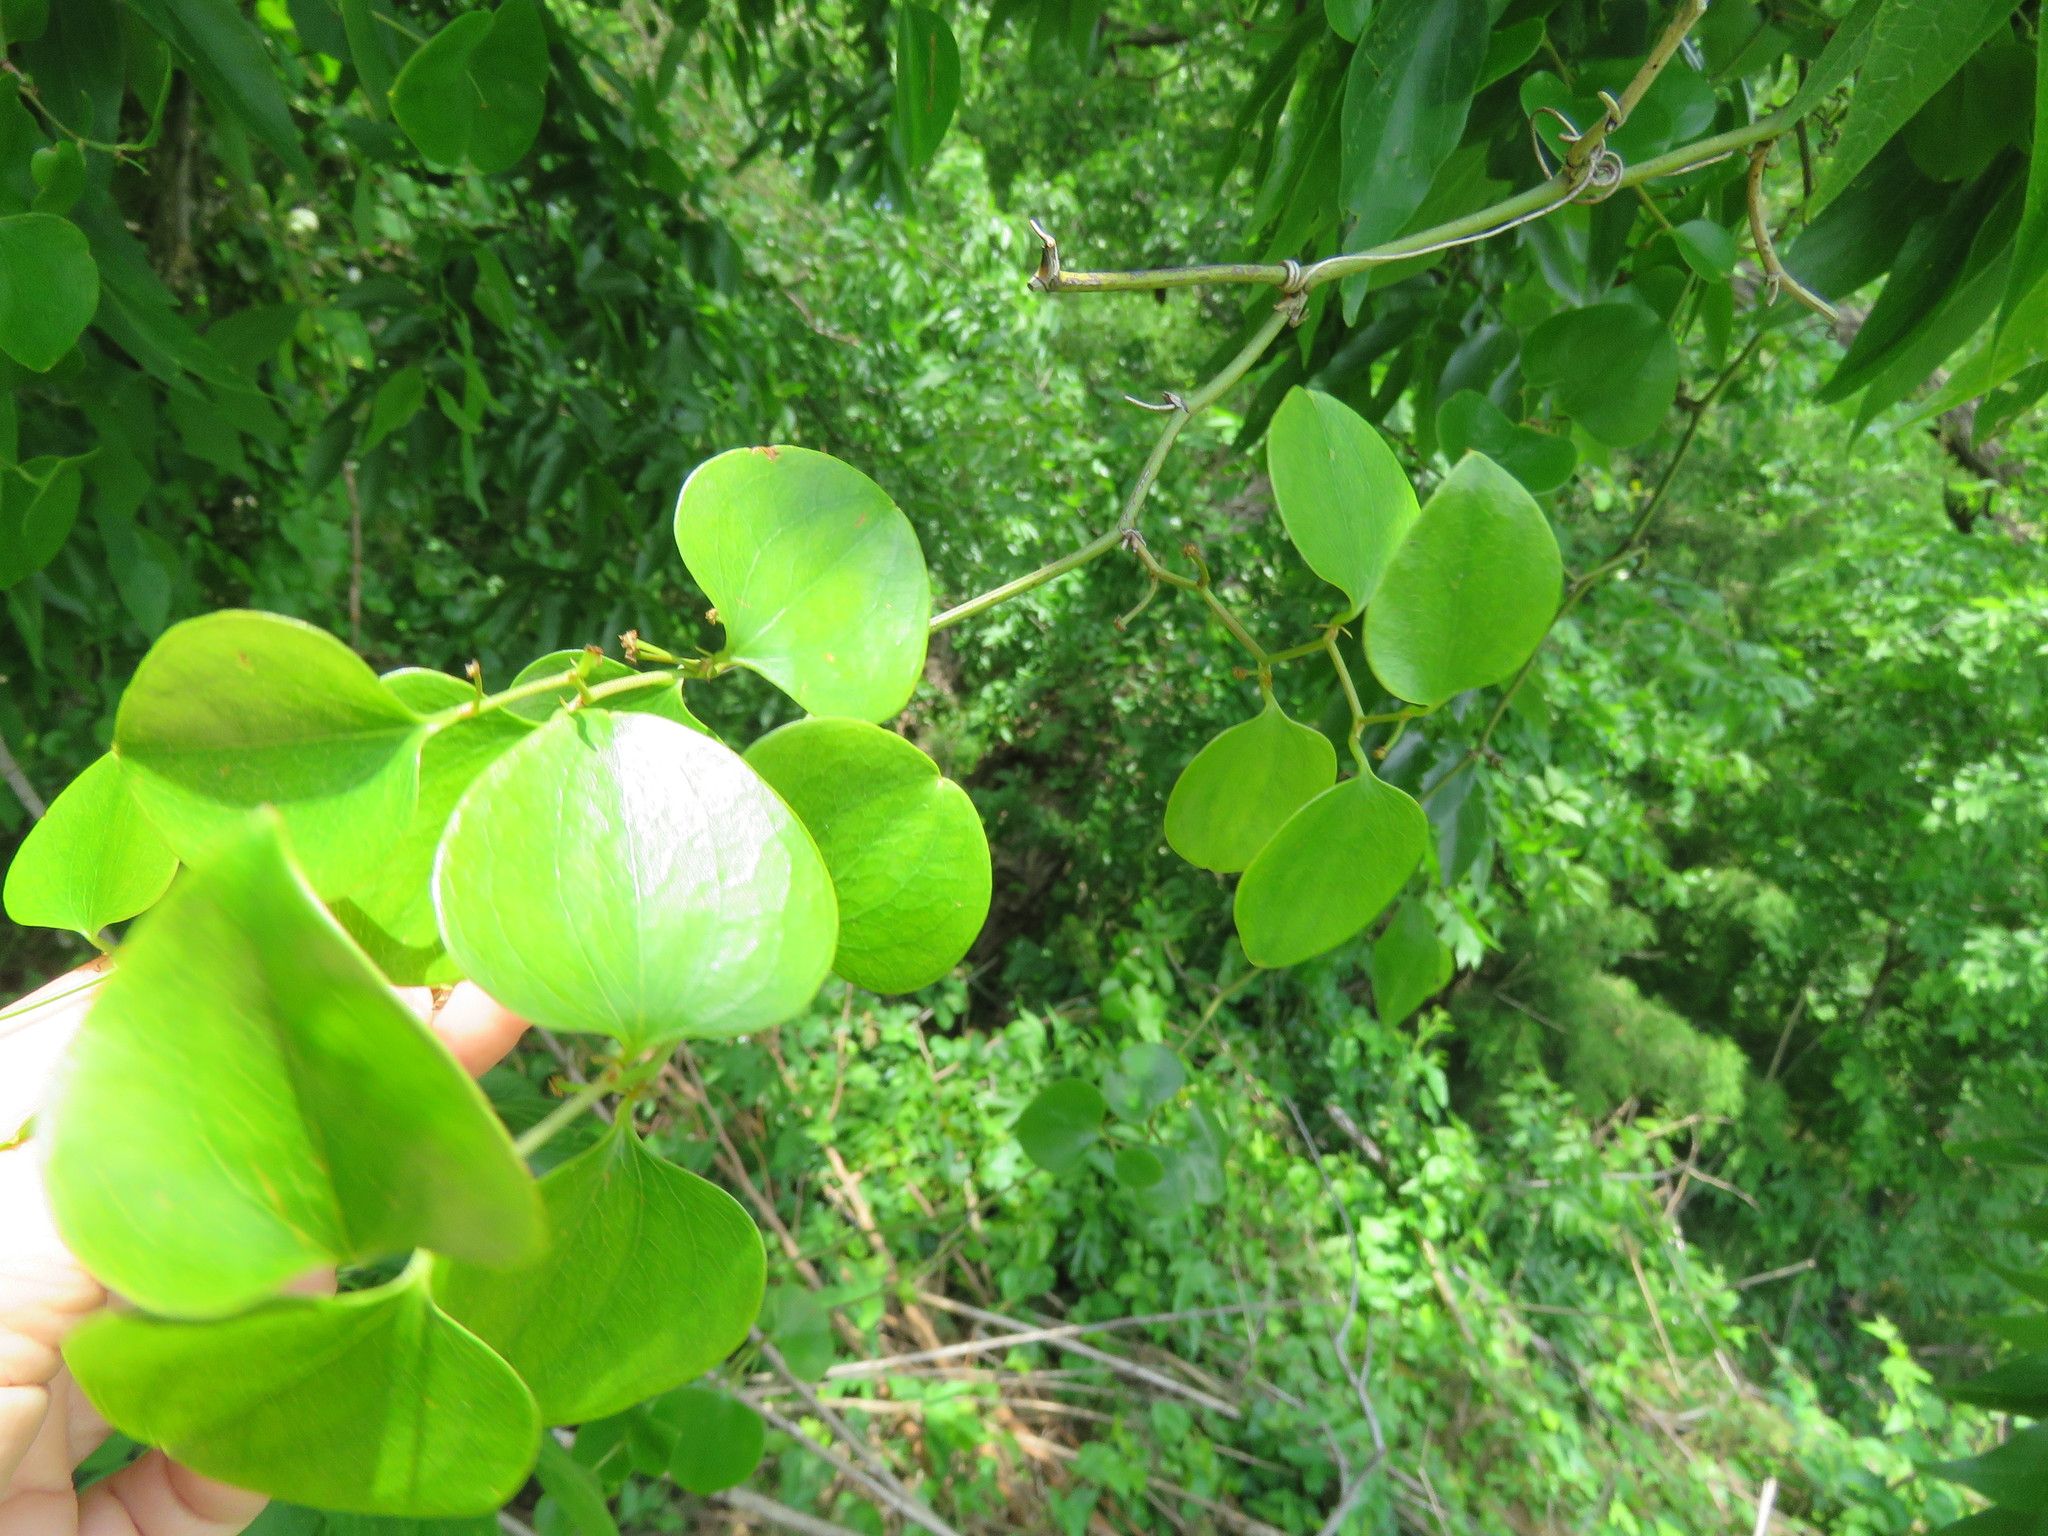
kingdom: Plantae
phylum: Tracheophyta
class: Liliopsida
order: Liliales
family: Smilacaceae
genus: Smilax
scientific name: Smilax rotundifolia
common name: Bullbriar
